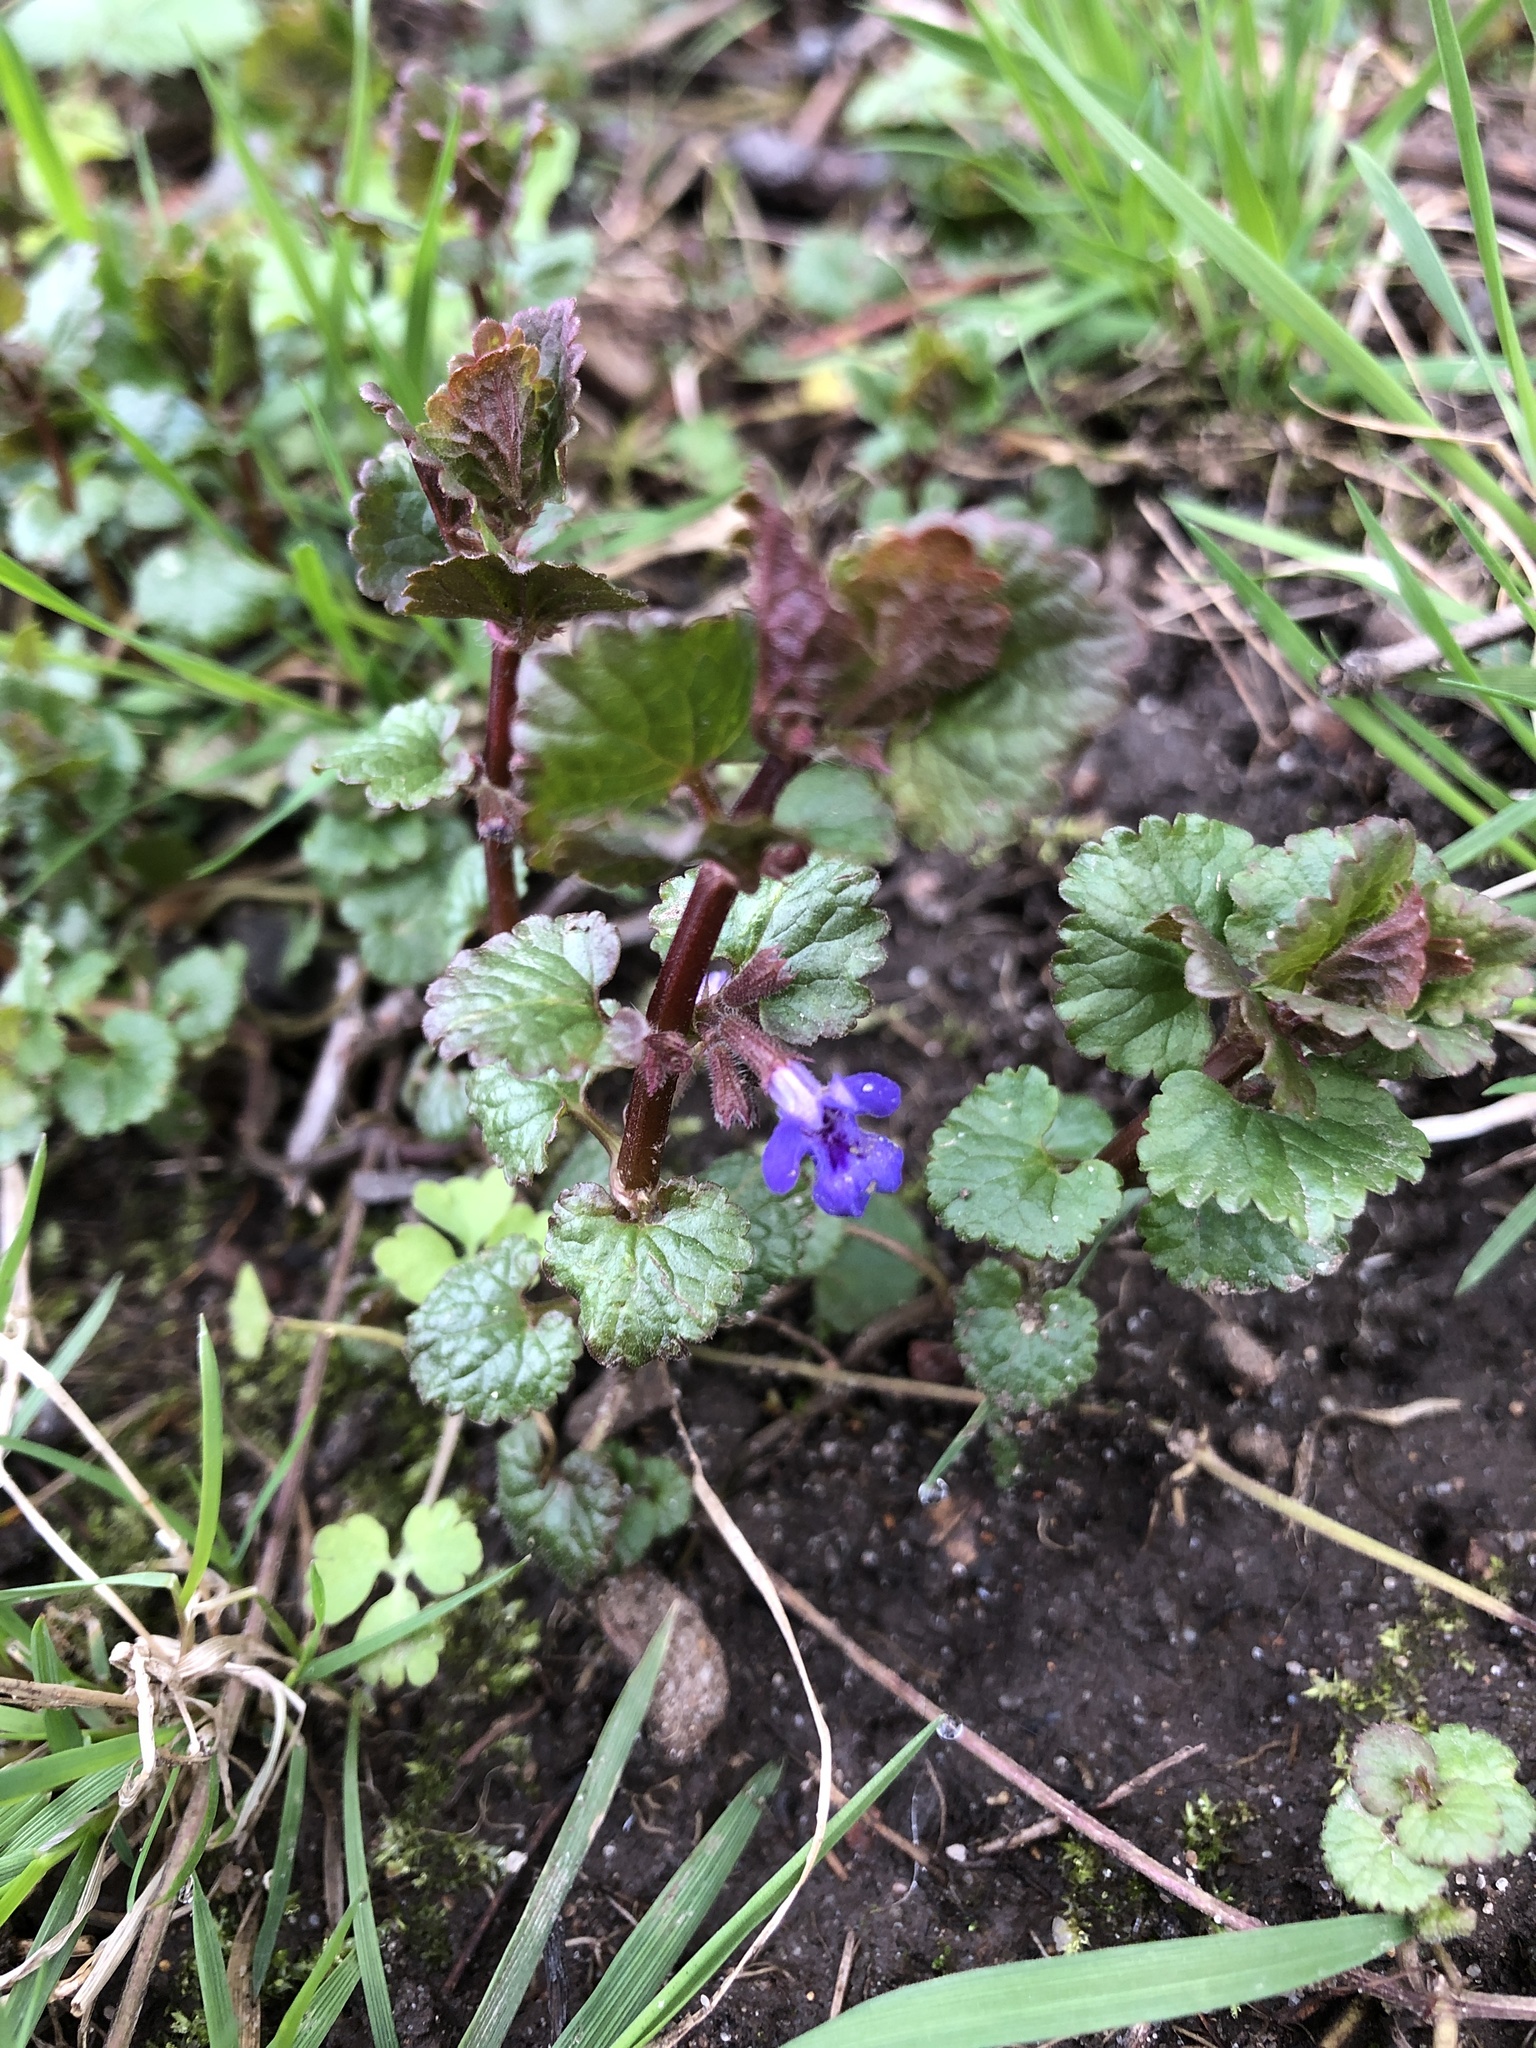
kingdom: Plantae
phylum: Tracheophyta
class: Magnoliopsida
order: Lamiales
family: Lamiaceae
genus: Glechoma
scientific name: Glechoma hederacea
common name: Ground ivy
